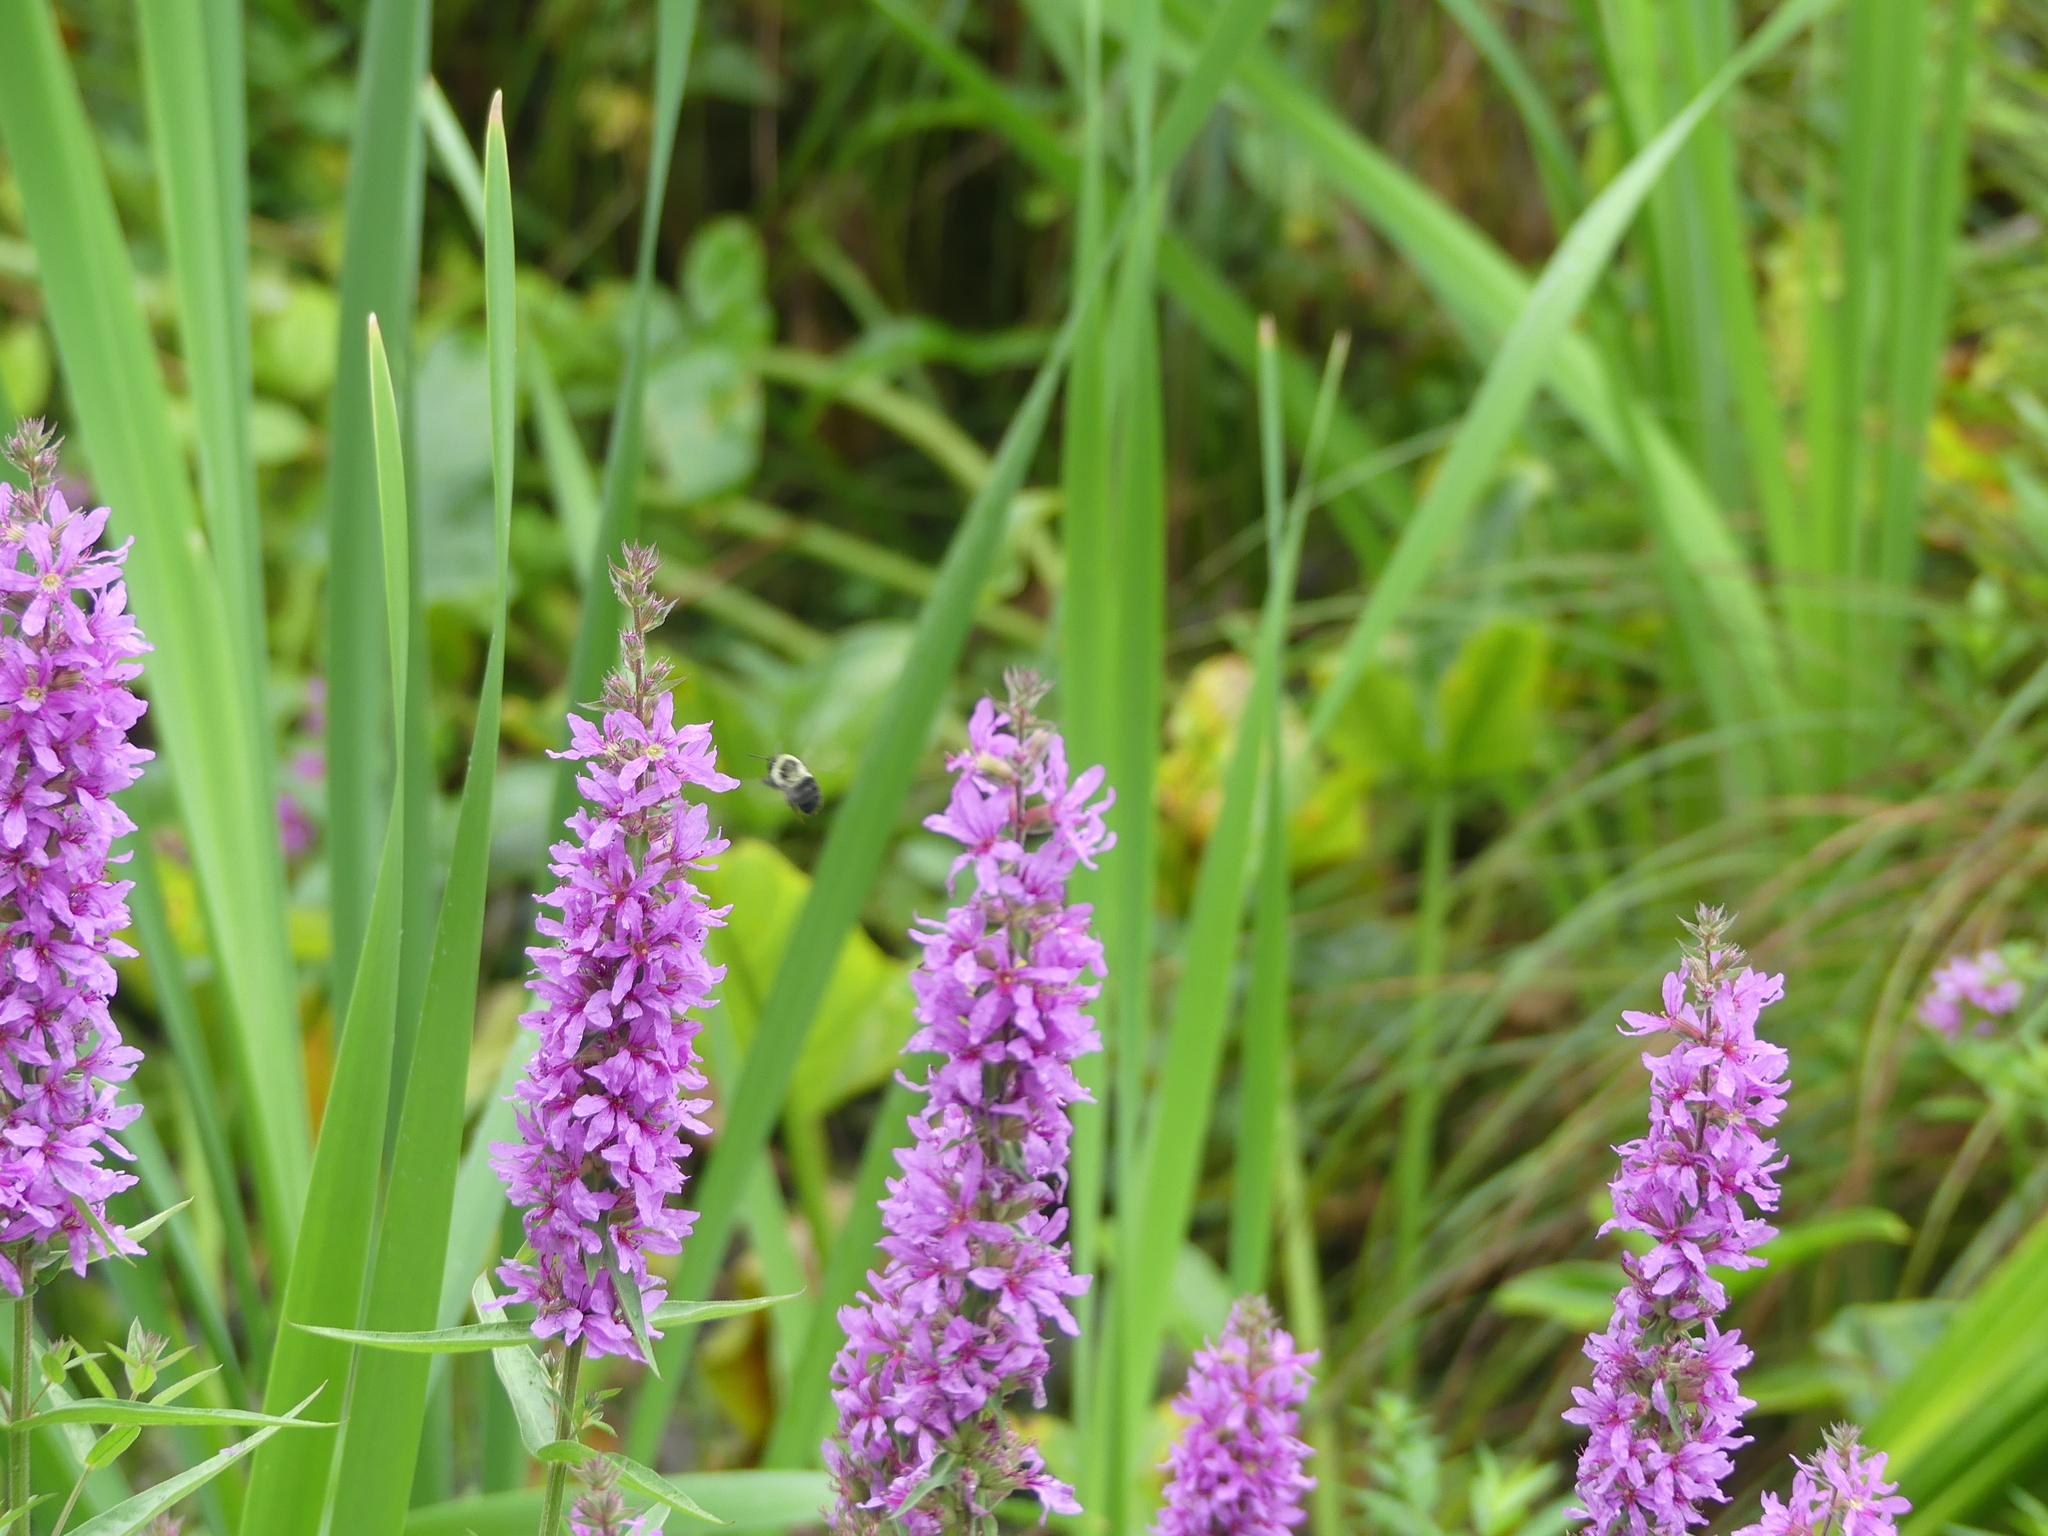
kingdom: Plantae
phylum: Tracheophyta
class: Magnoliopsida
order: Myrtales
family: Lythraceae
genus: Lythrum
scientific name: Lythrum salicaria
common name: Purple loosestrife
